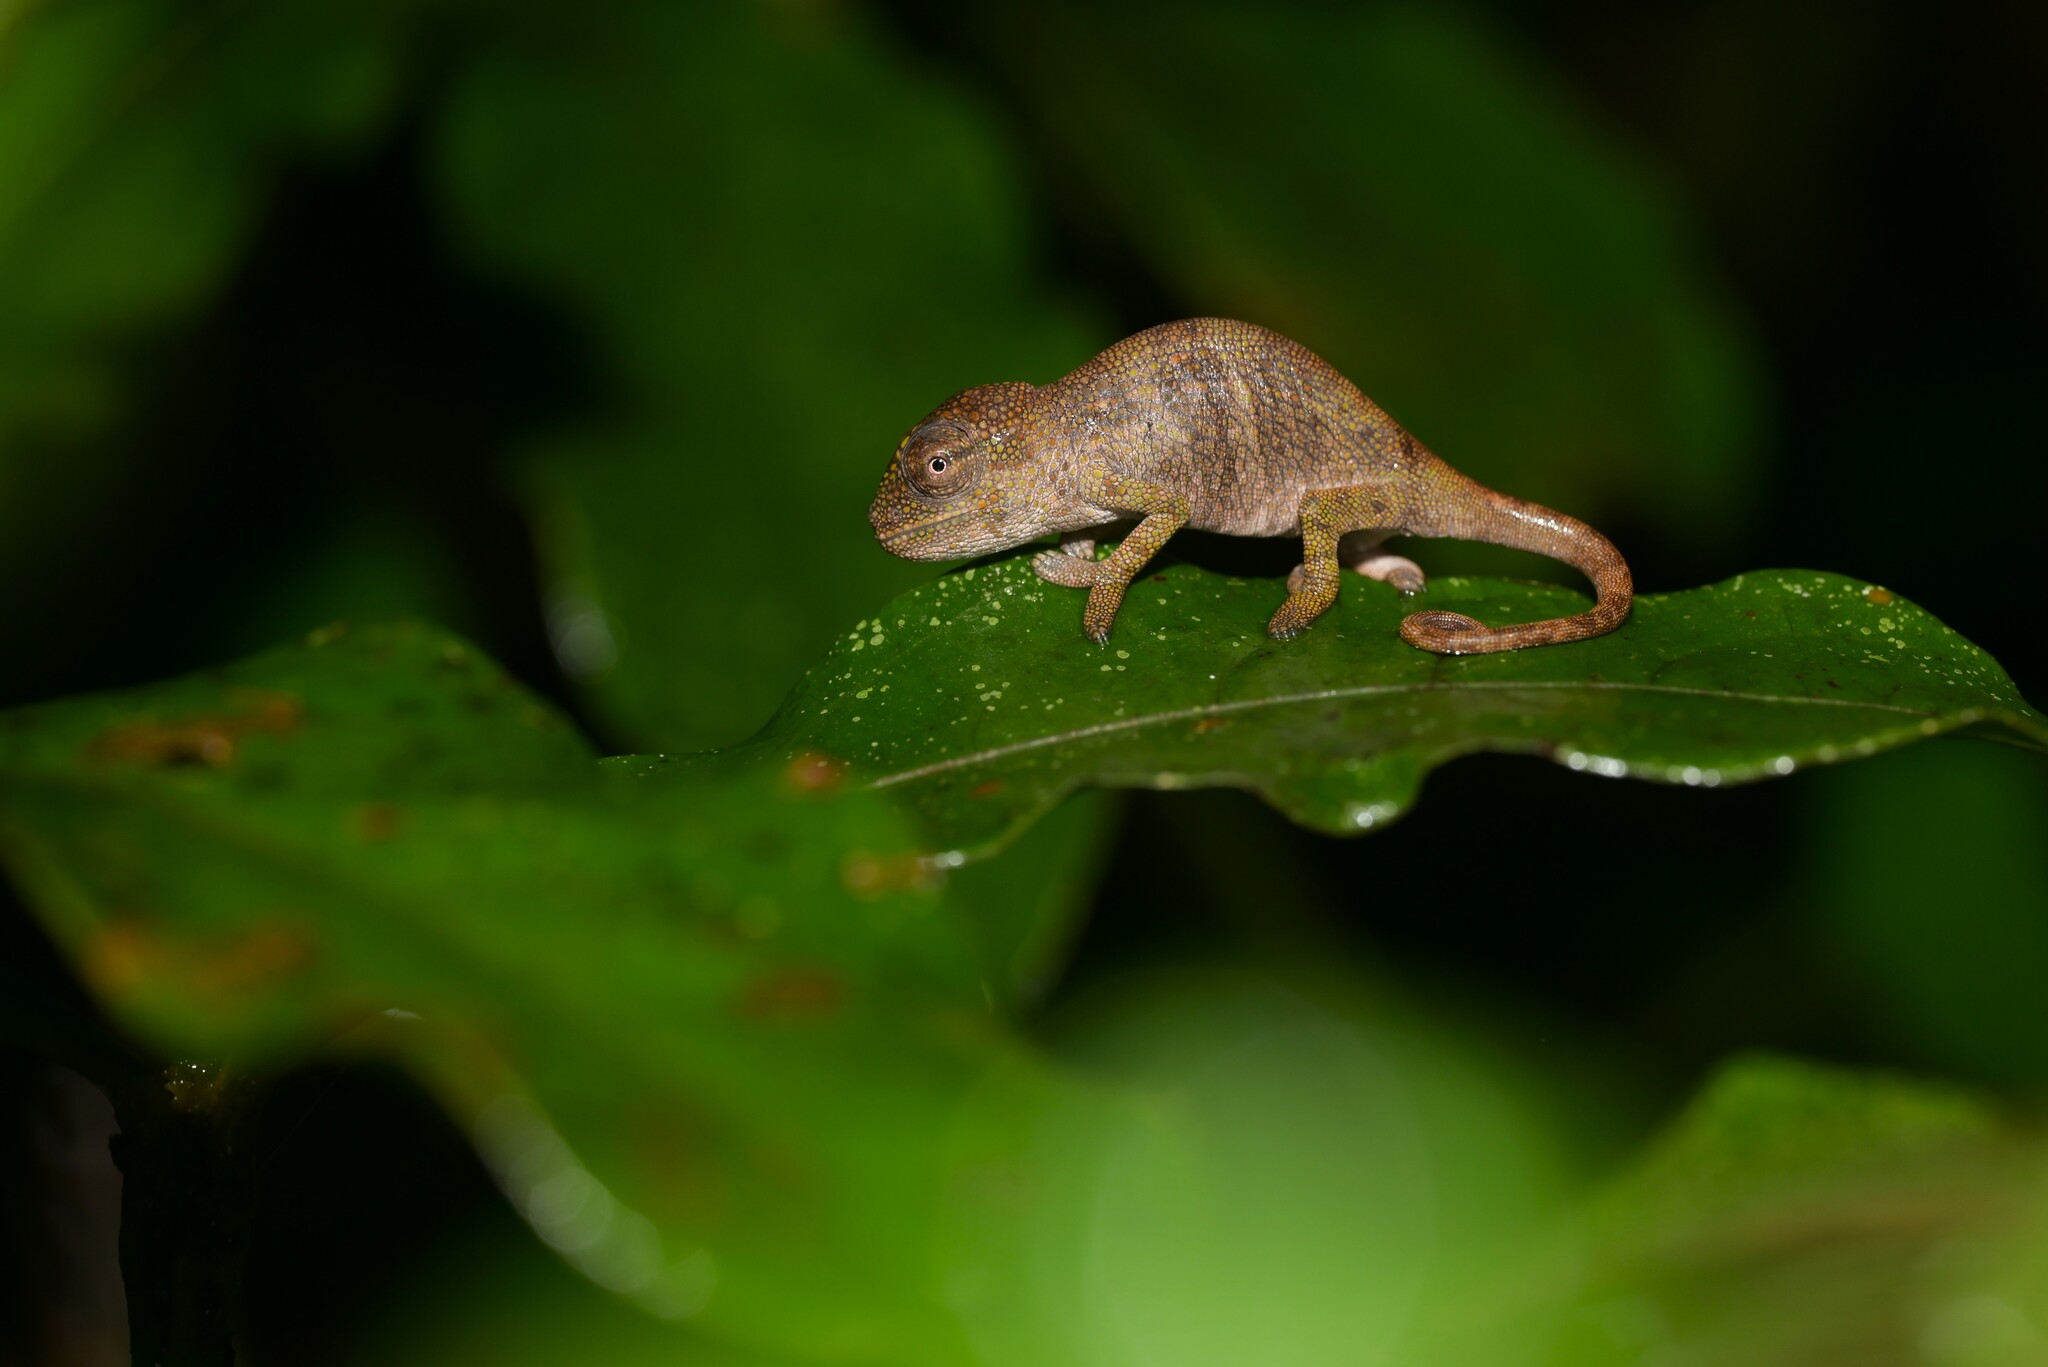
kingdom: Animalia
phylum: Chordata
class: Squamata
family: Chamaeleonidae
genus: Kinyongia
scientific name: Kinyongia msuyae
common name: Msuya’s forest chameleon
